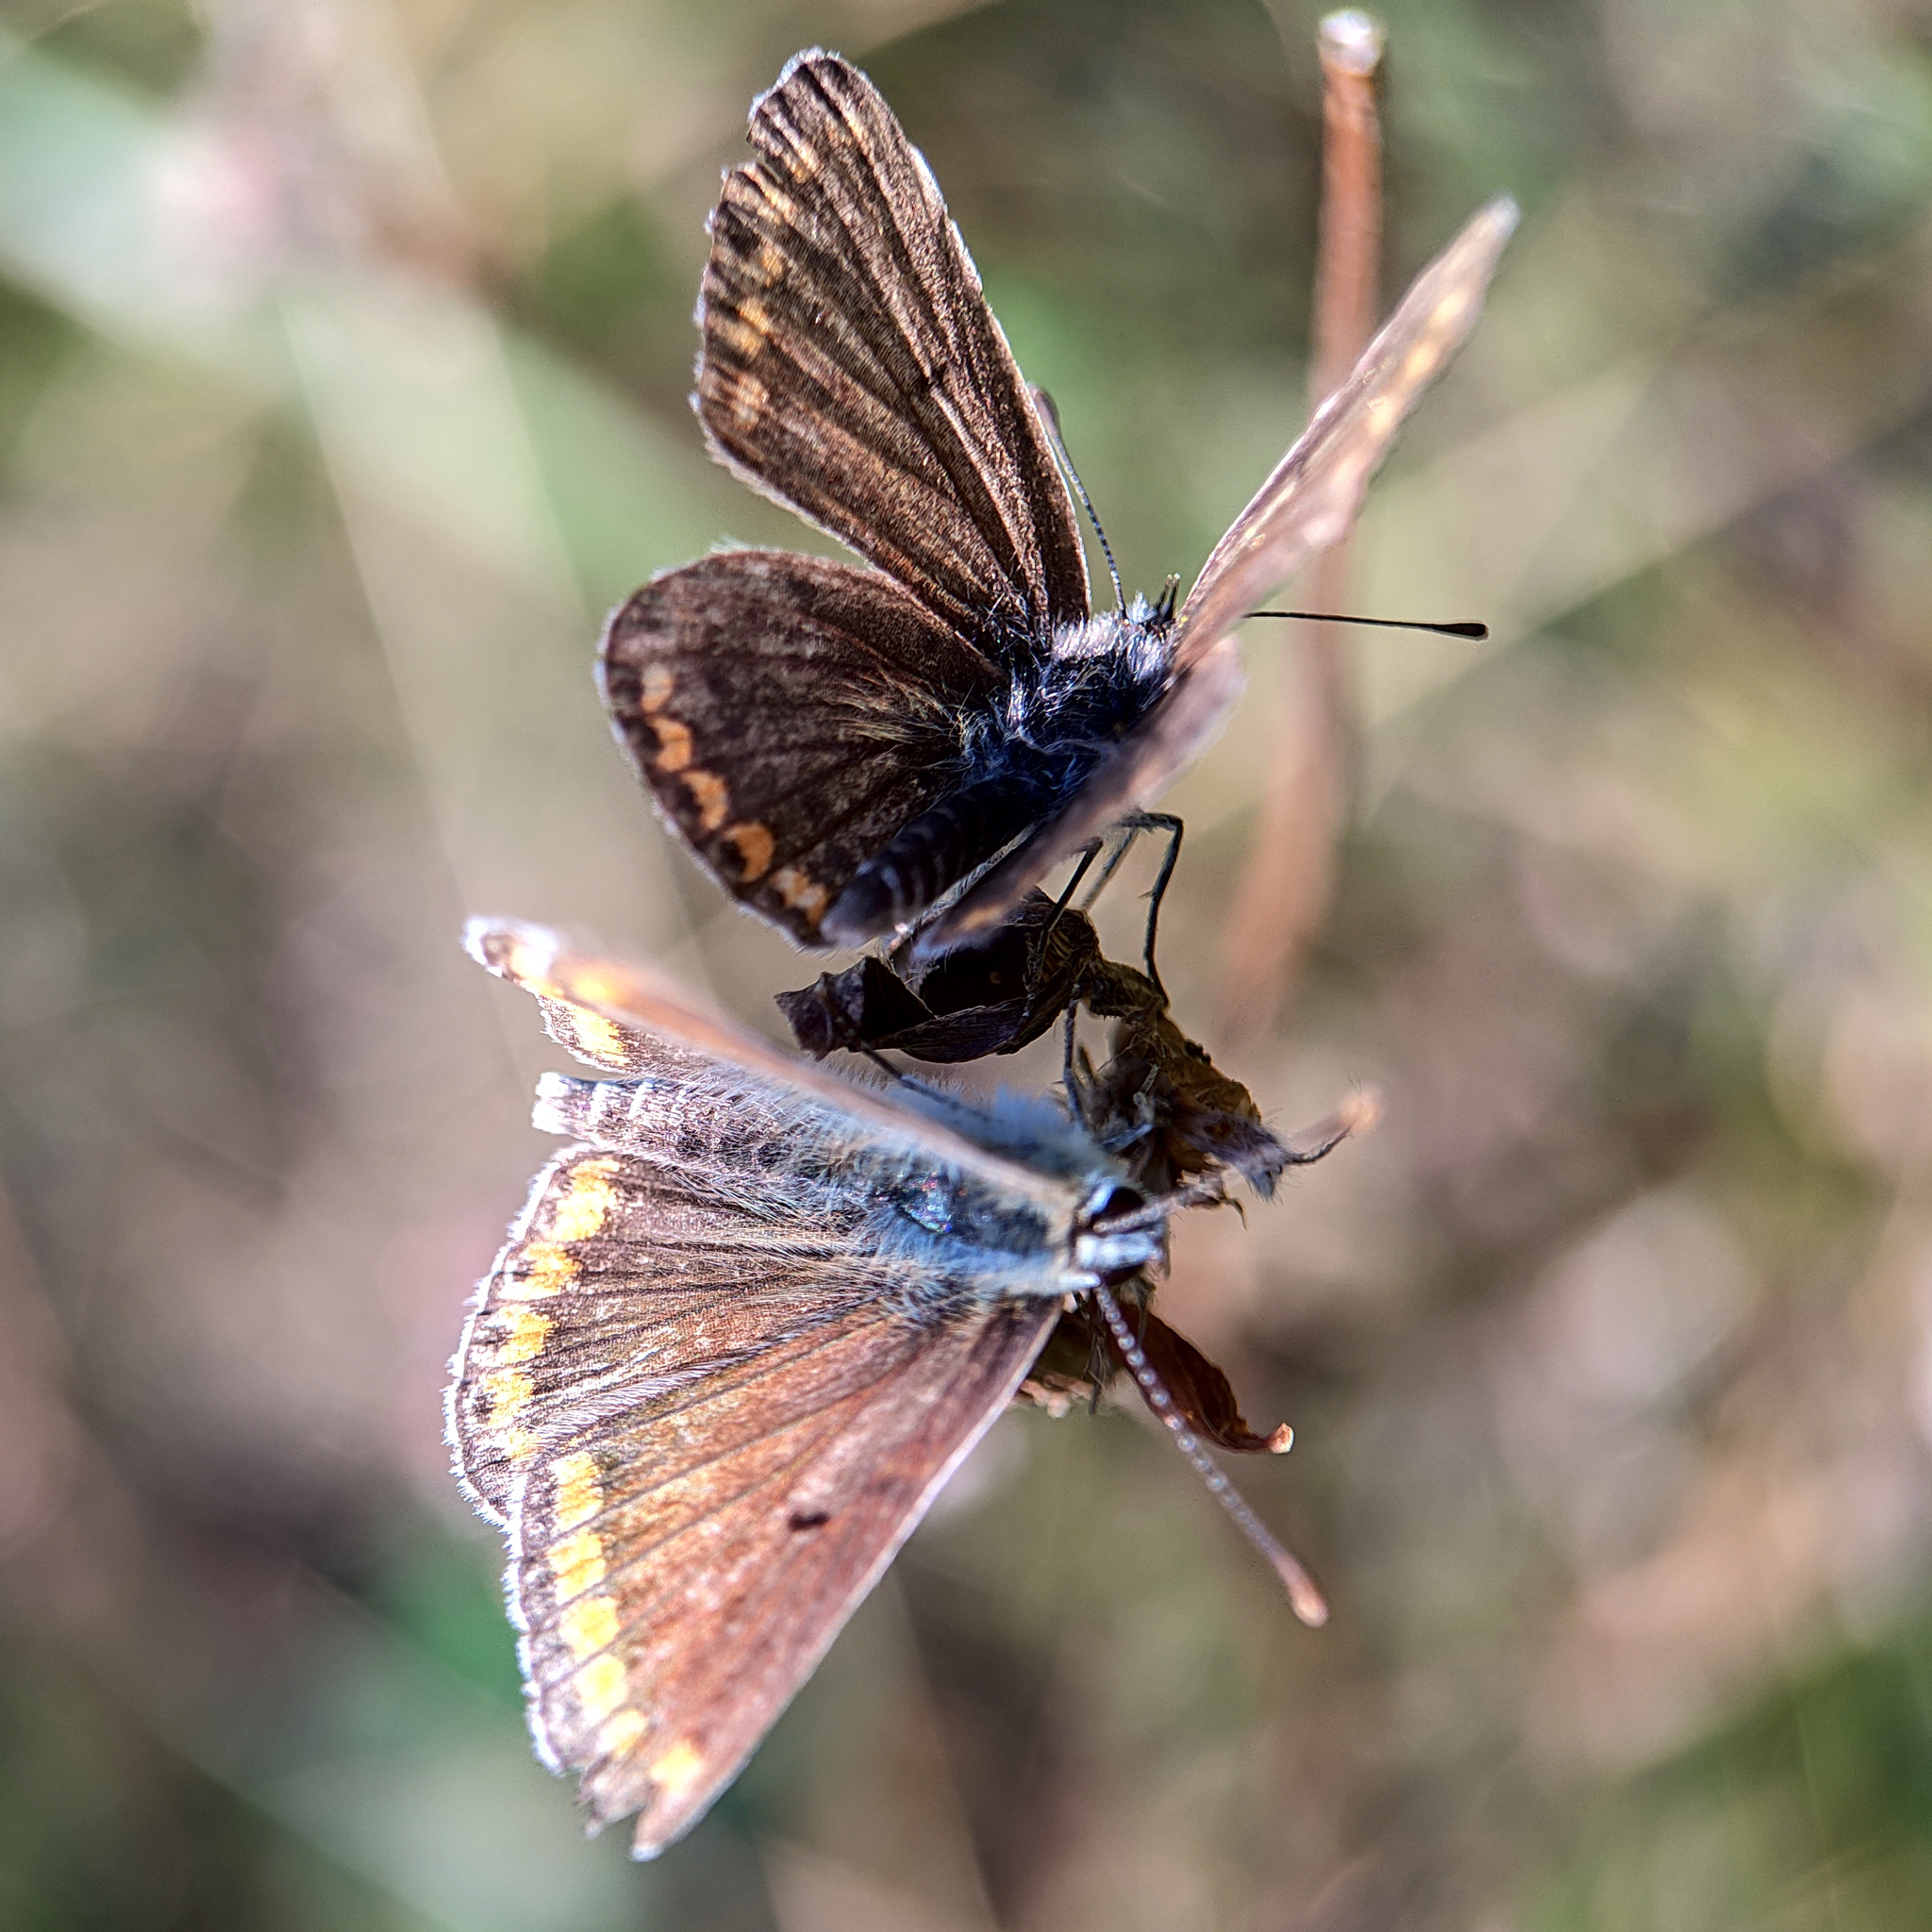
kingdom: Animalia
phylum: Arthropoda
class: Insecta
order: Lepidoptera
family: Lycaenidae
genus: Aricia
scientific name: Aricia agestis
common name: Brown argus
